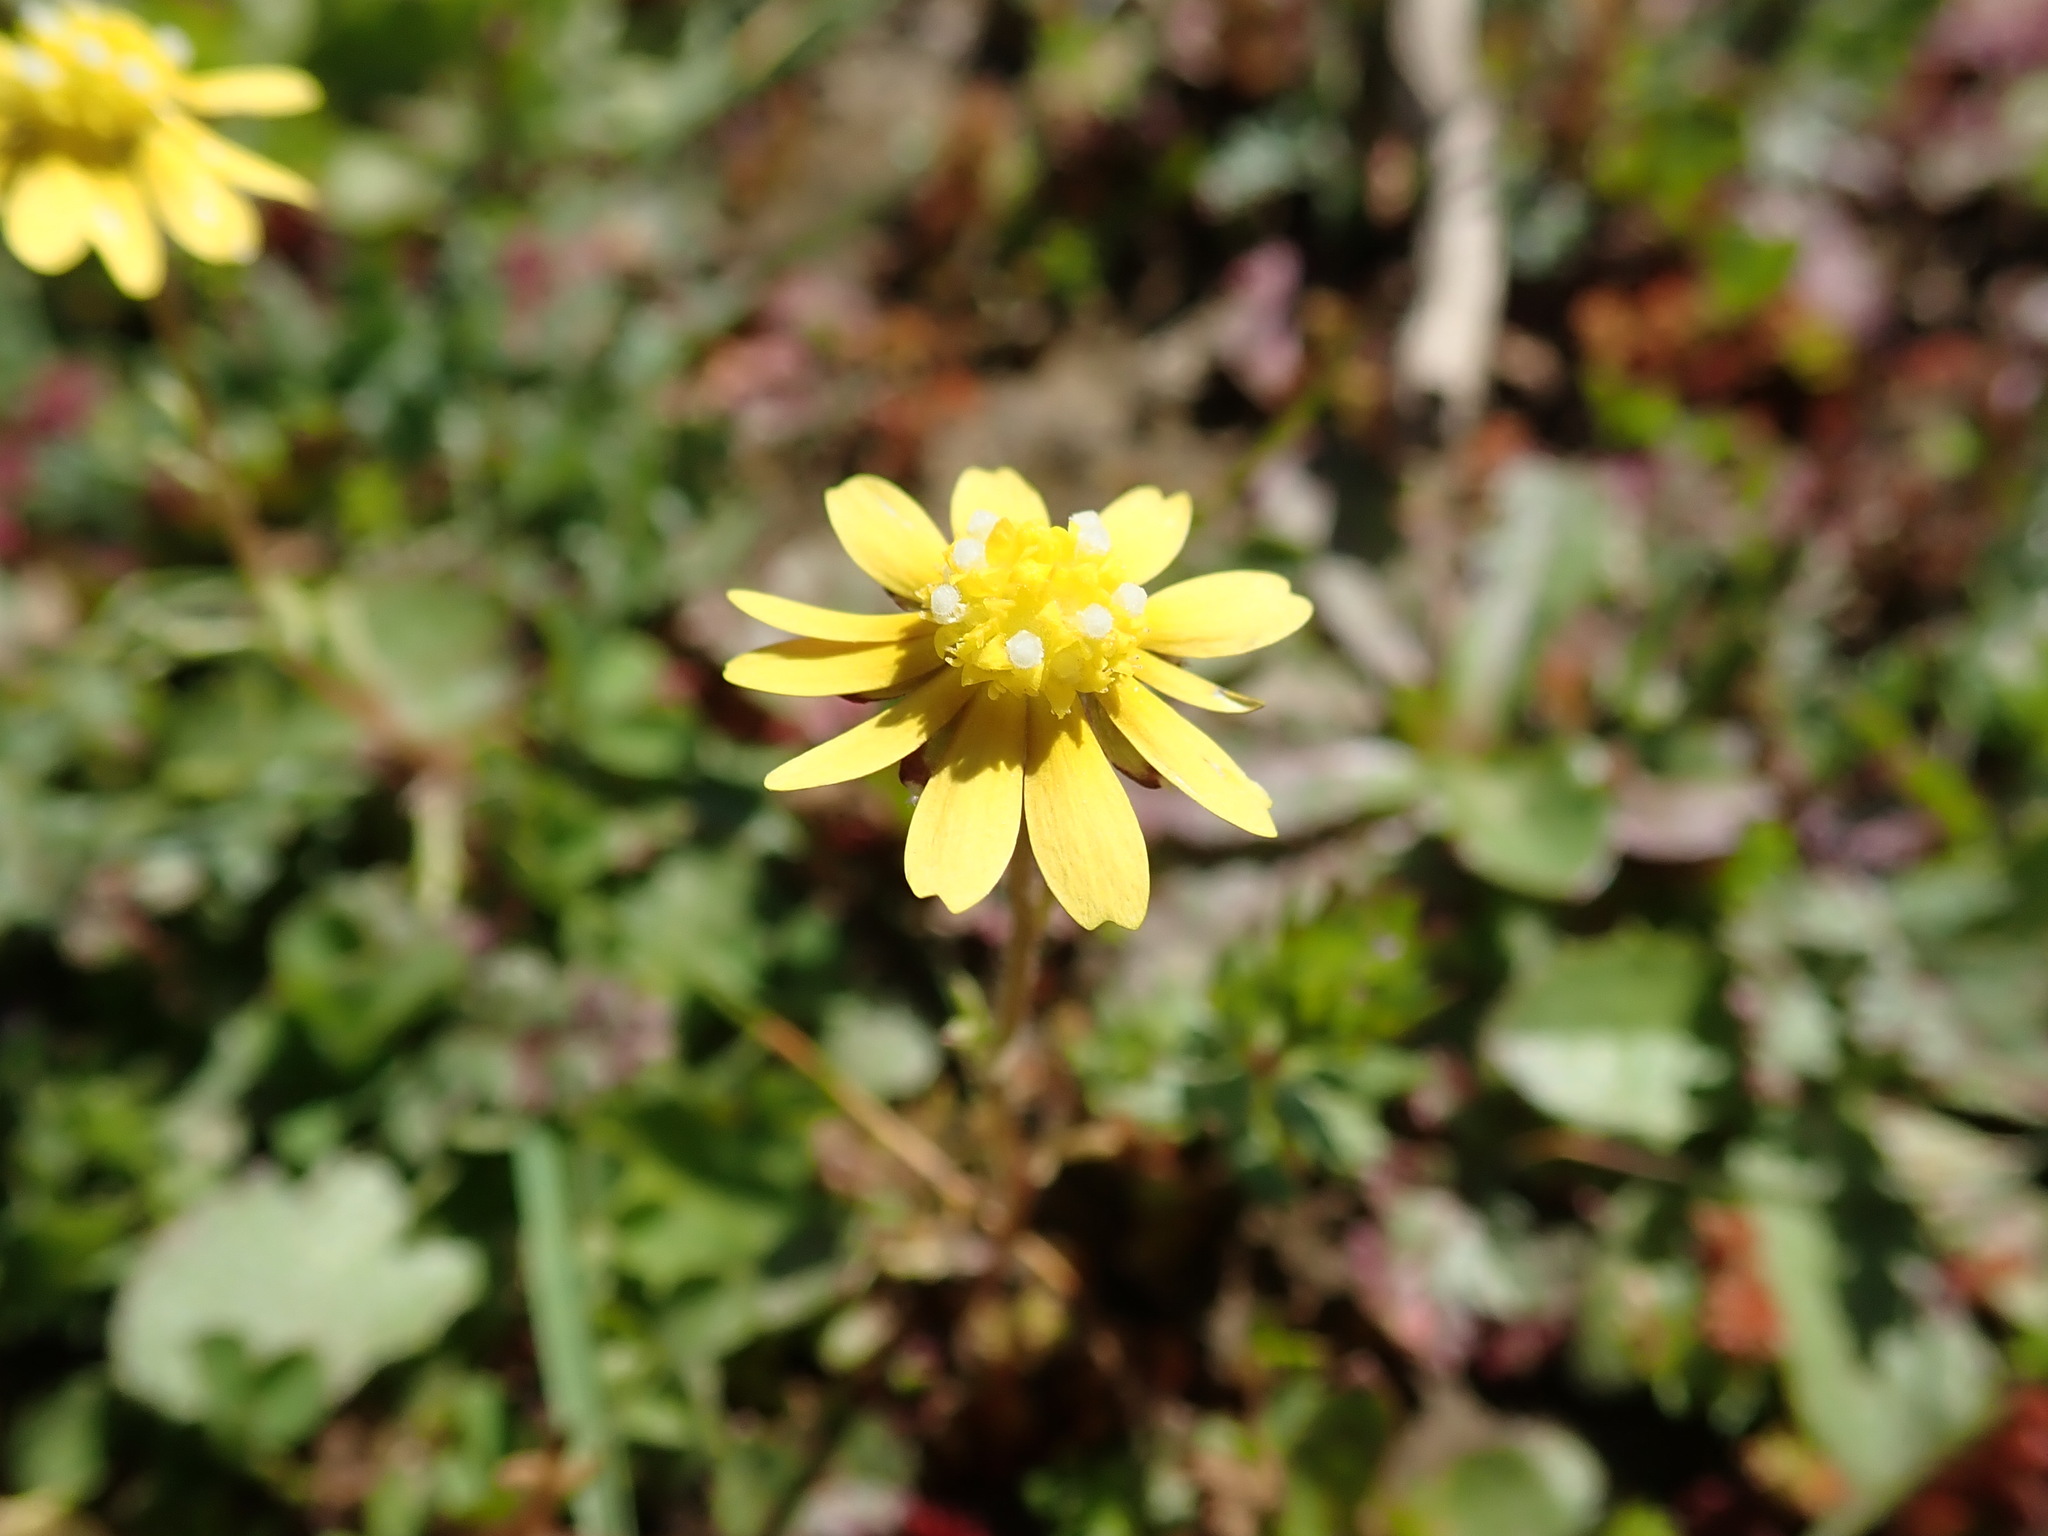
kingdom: Plantae
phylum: Tracheophyta
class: Magnoliopsida
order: Asterales
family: Asteraceae
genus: Blennosperma
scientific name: Blennosperma nanum
